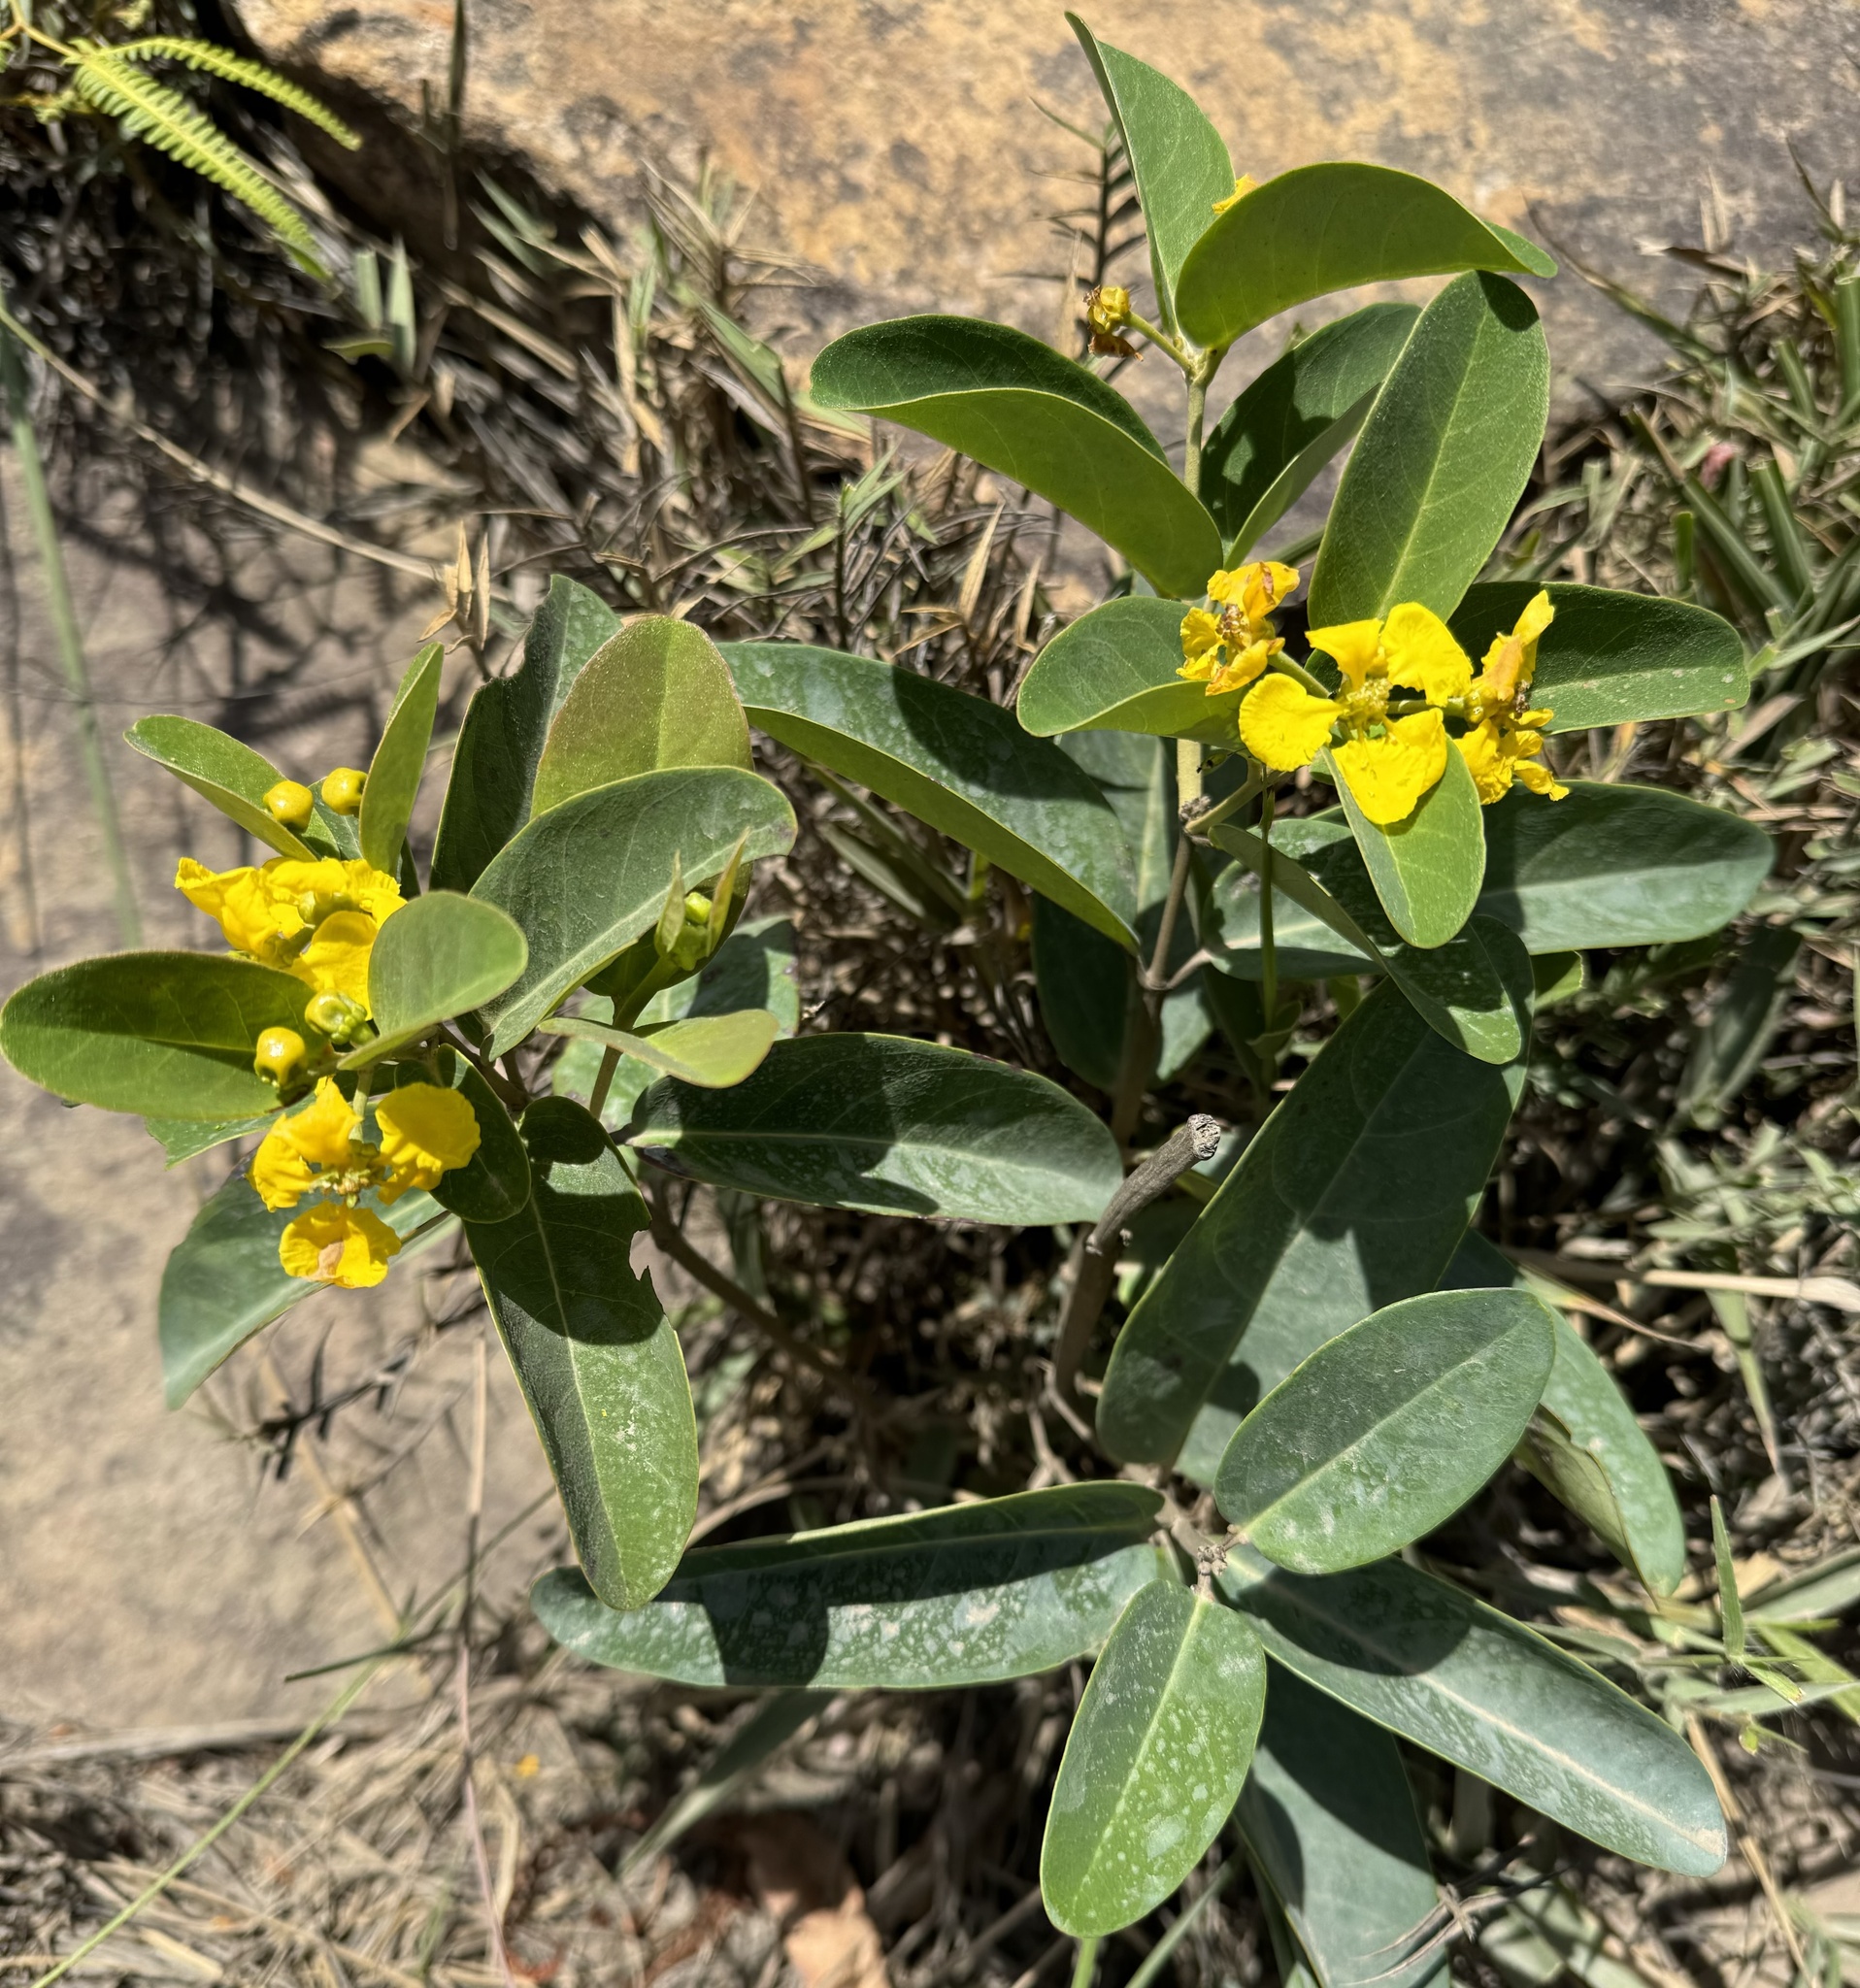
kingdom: Plantae
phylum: Tracheophyta
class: Magnoliopsida
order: Malpighiales
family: Malpighiaceae
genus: Stigmaphyllon
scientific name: Stigmaphyllon paralias
